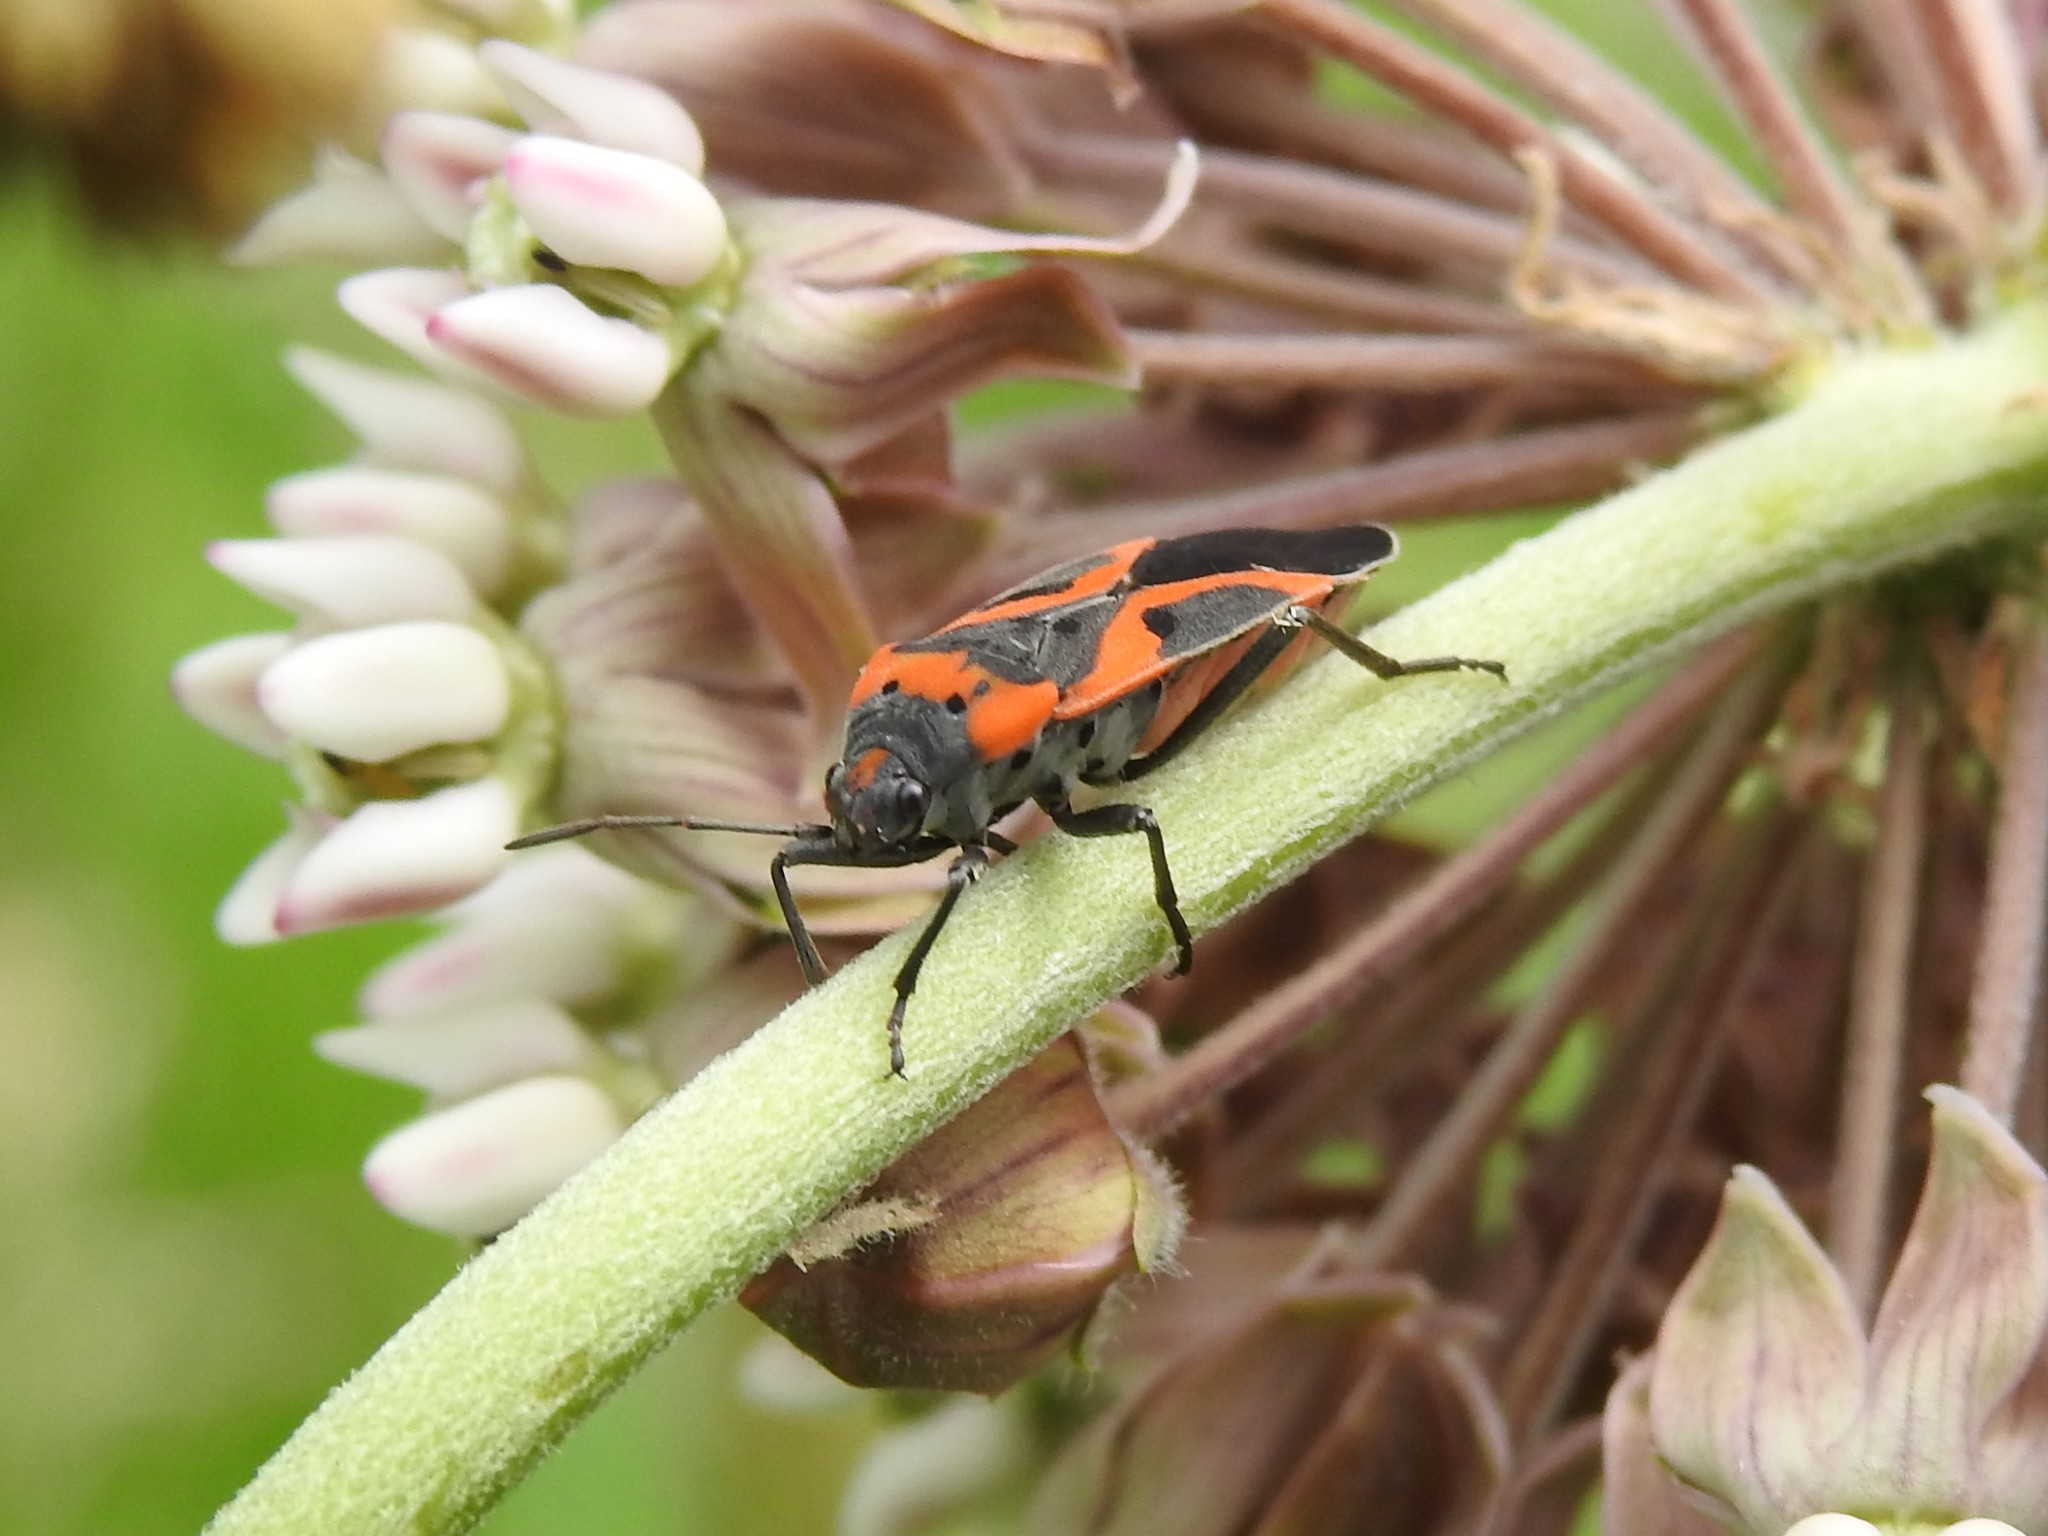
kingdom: Animalia
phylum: Arthropoda
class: Insecta
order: Hemiptera
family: Lygaeidae
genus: Lygaeus
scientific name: Lygaeus kalmii
